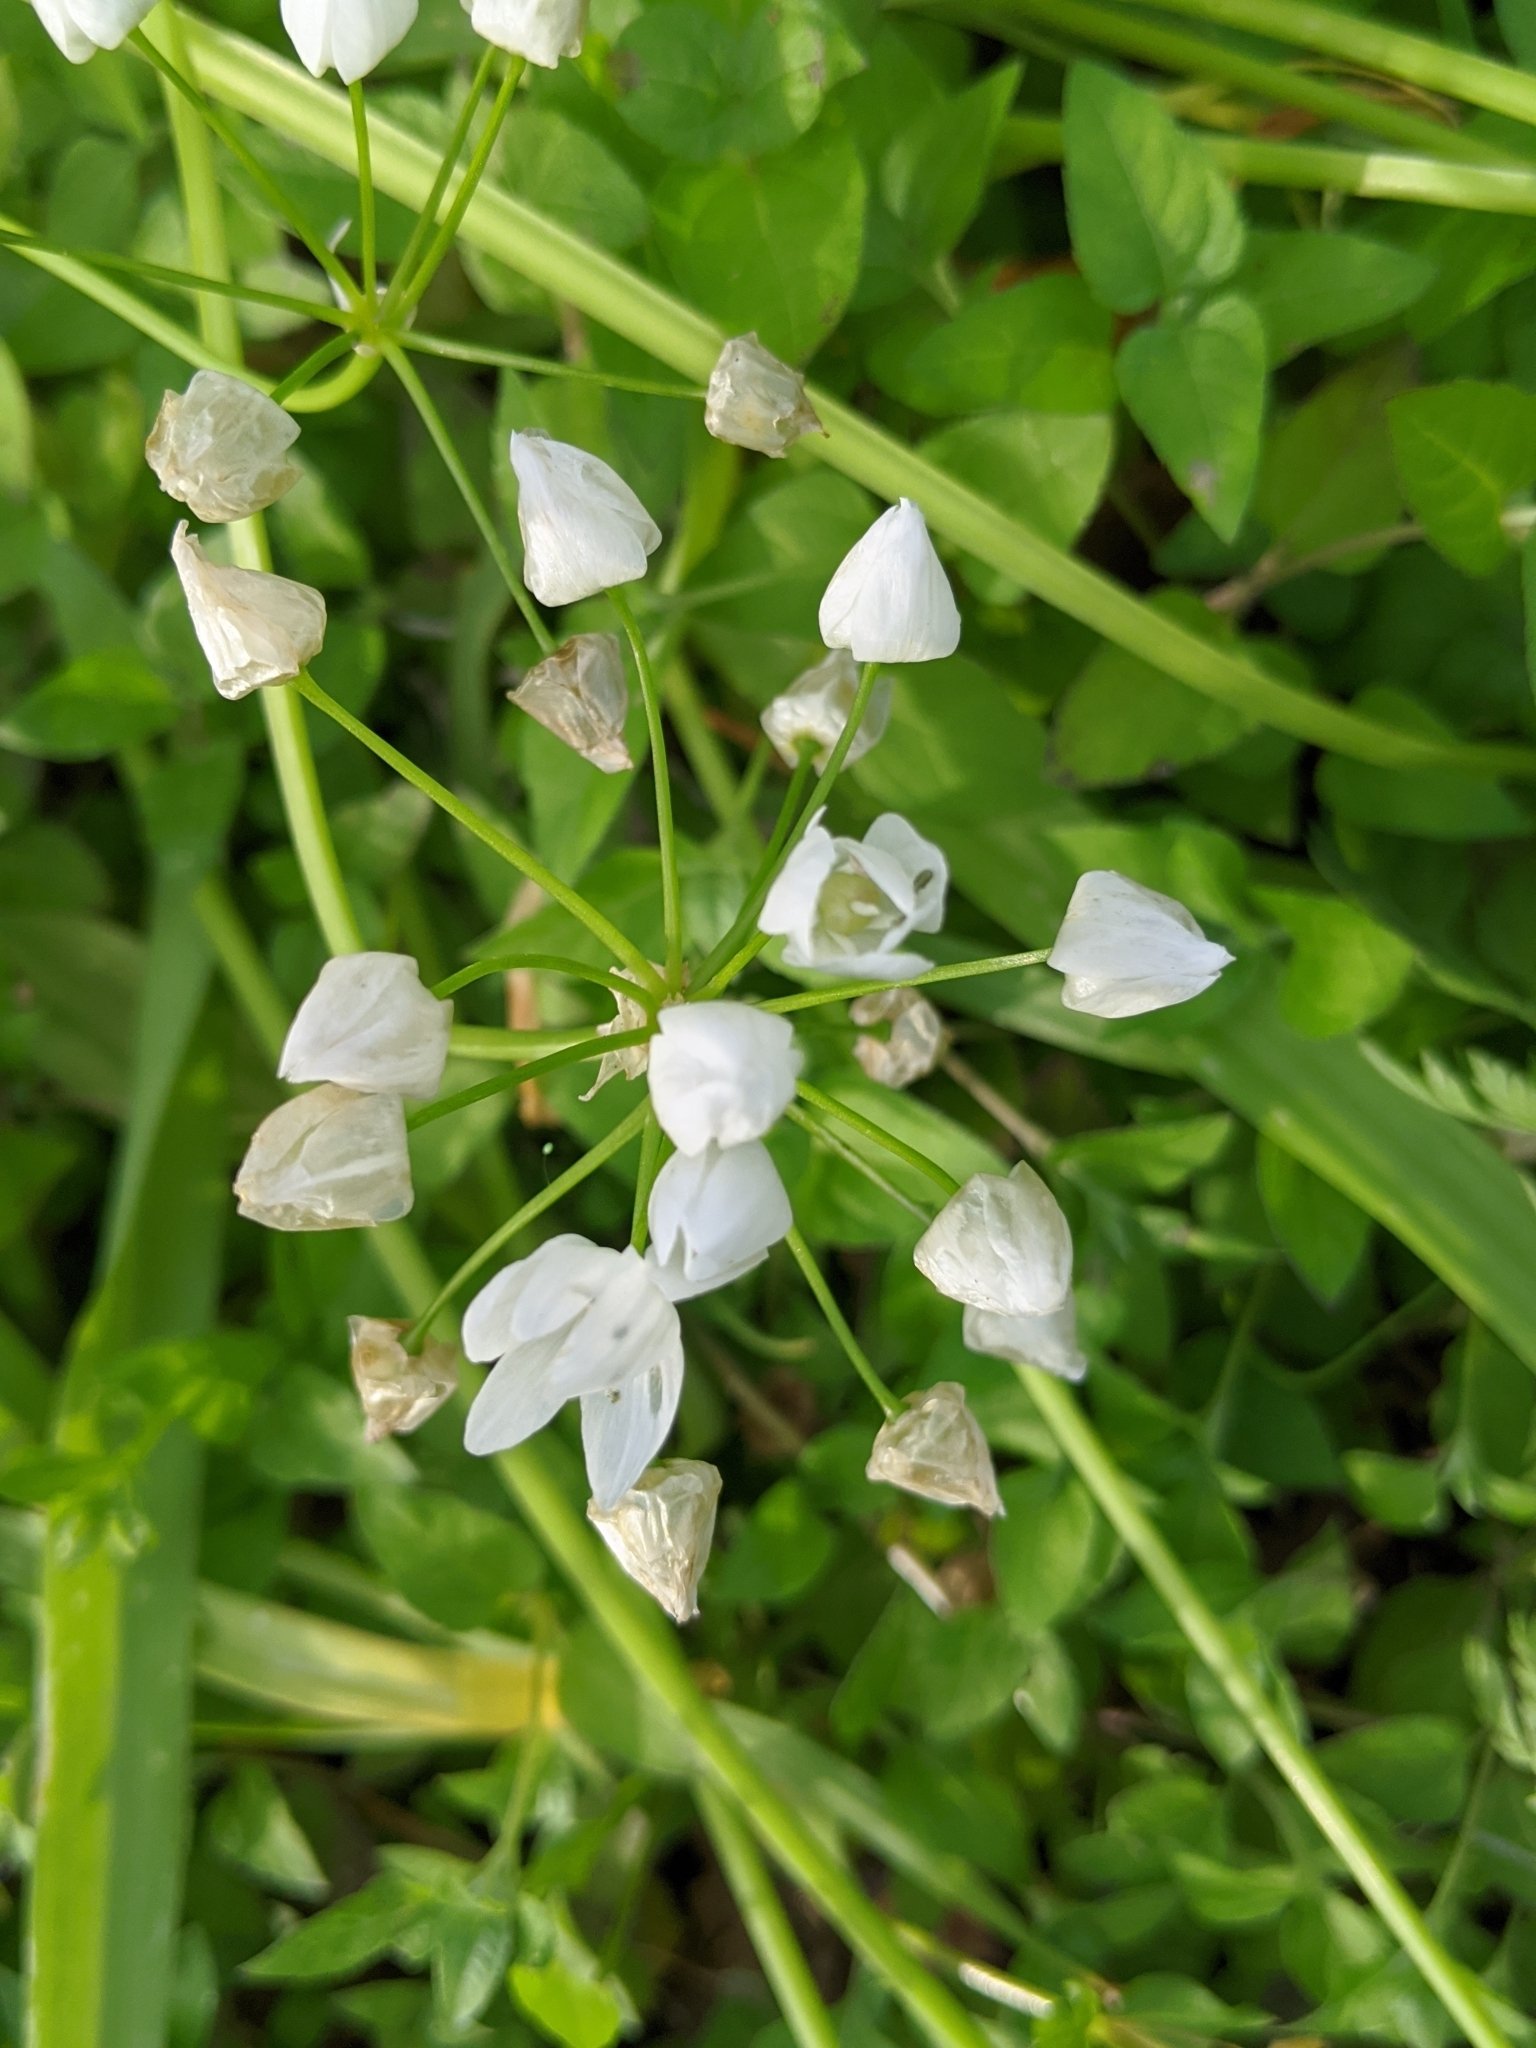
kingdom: Plantae
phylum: Tracheophyta
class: Liliopsida
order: Asparagales
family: Amaryllidaceae
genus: Allium
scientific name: Allium neapolitanum
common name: Neapolitan garlic
